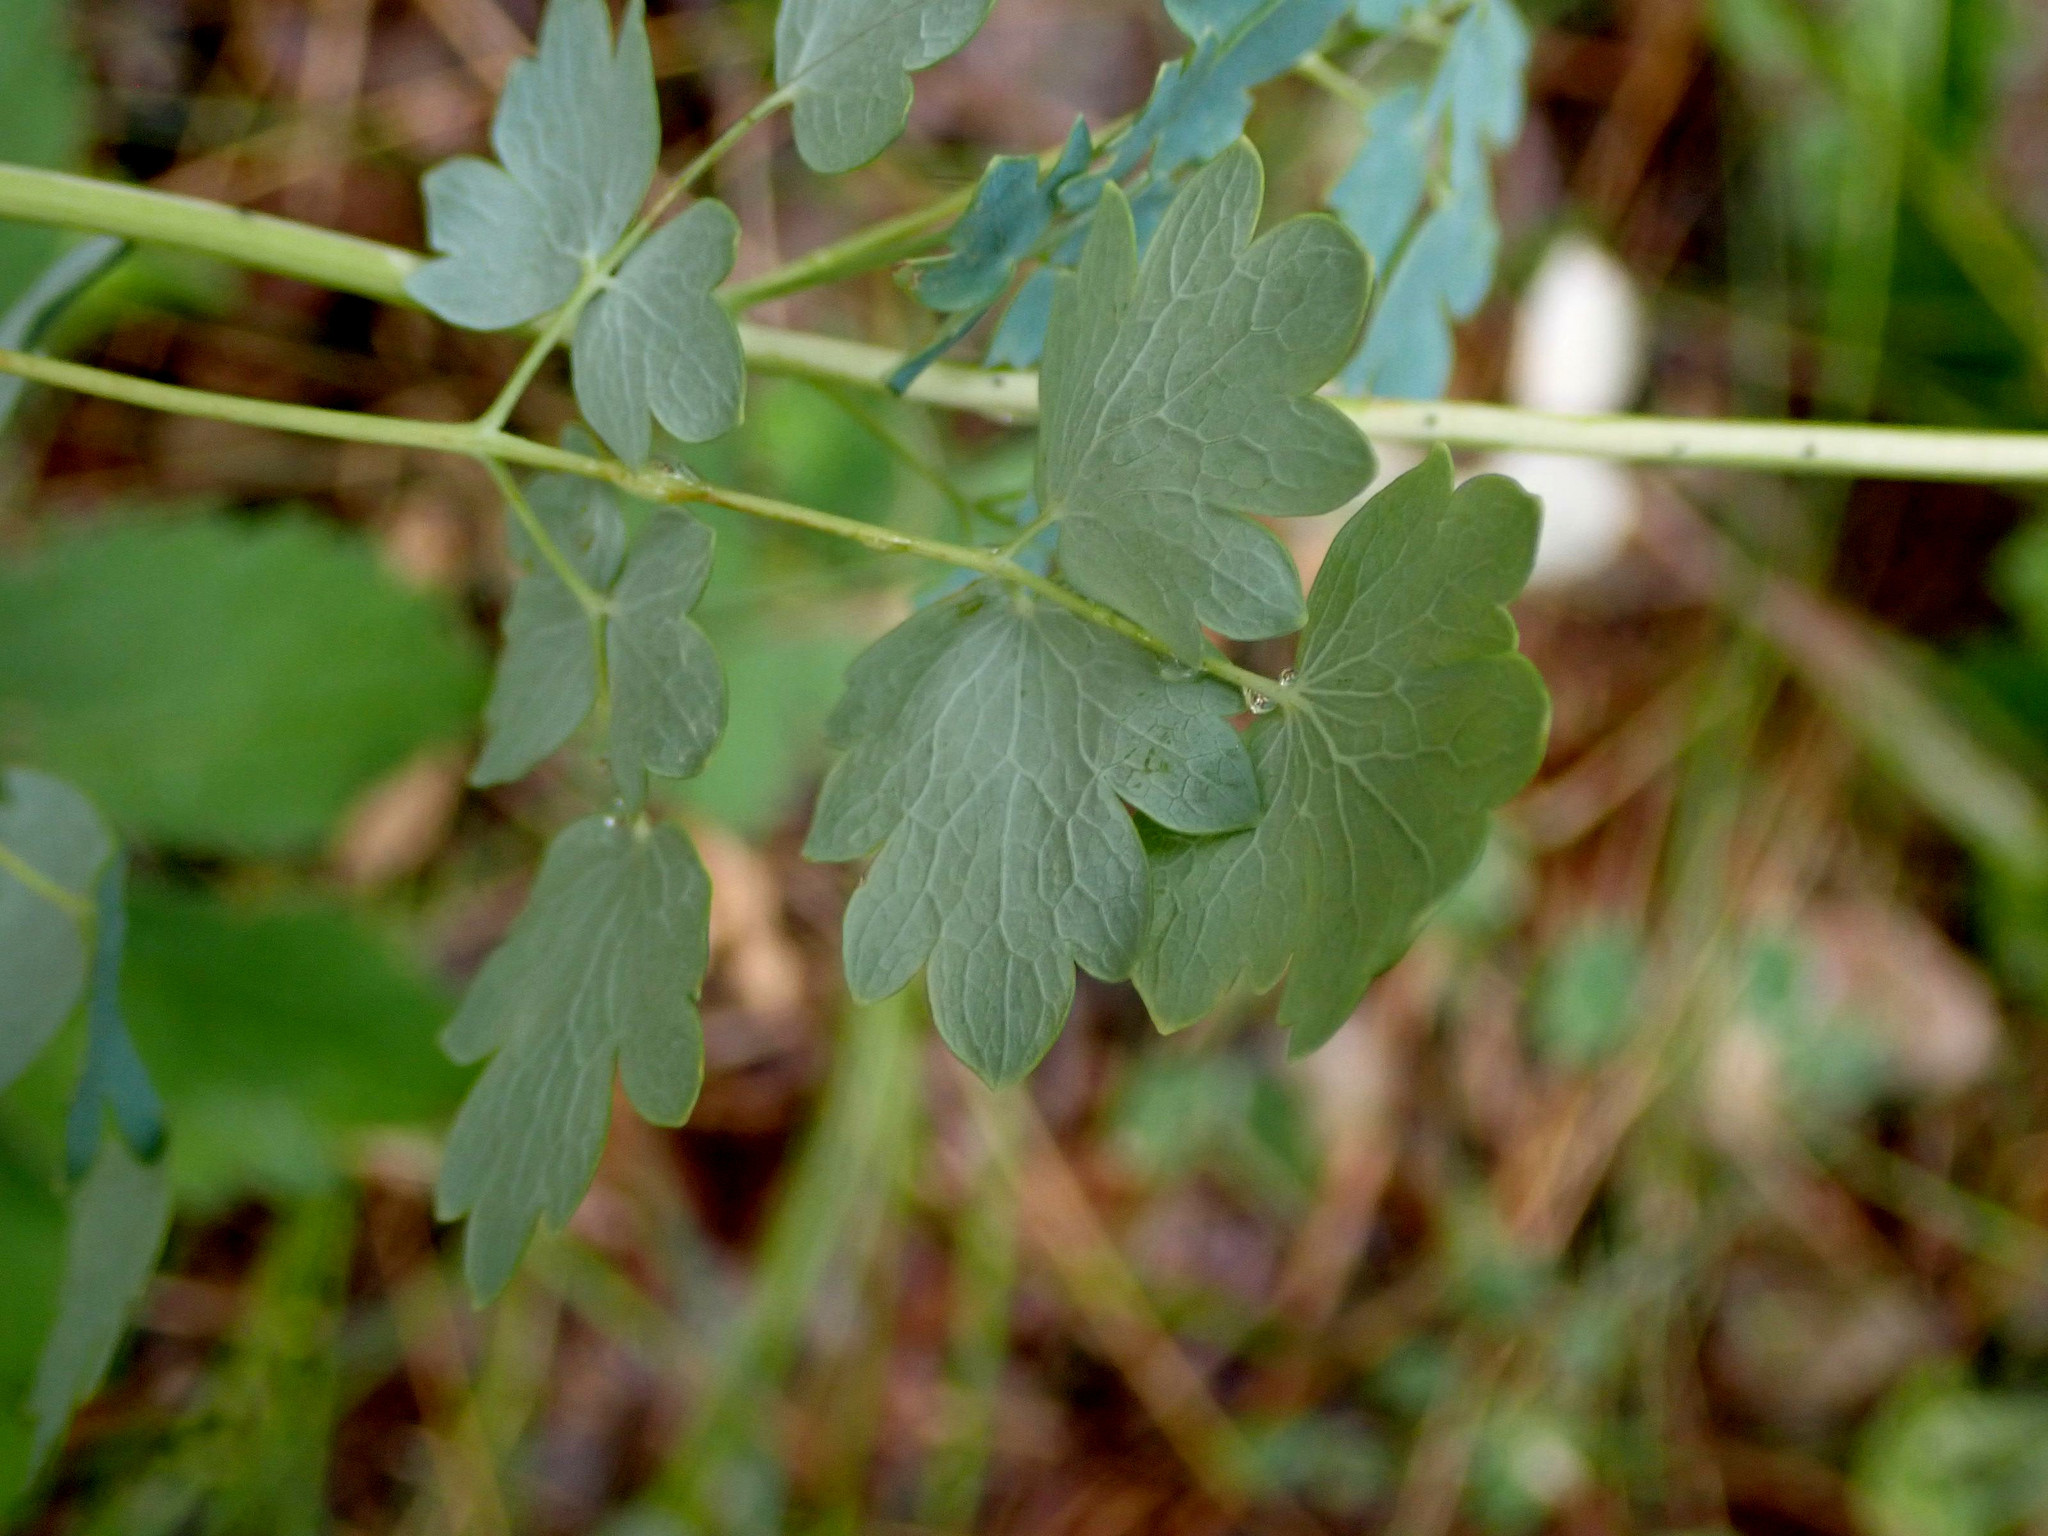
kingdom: Plantae
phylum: Tracheophyta
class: Magnoliopsida
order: Ranunculales
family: Ranunculaceae
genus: Thalictrum
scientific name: Thalictrum venulosum
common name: Early meadow-rue
